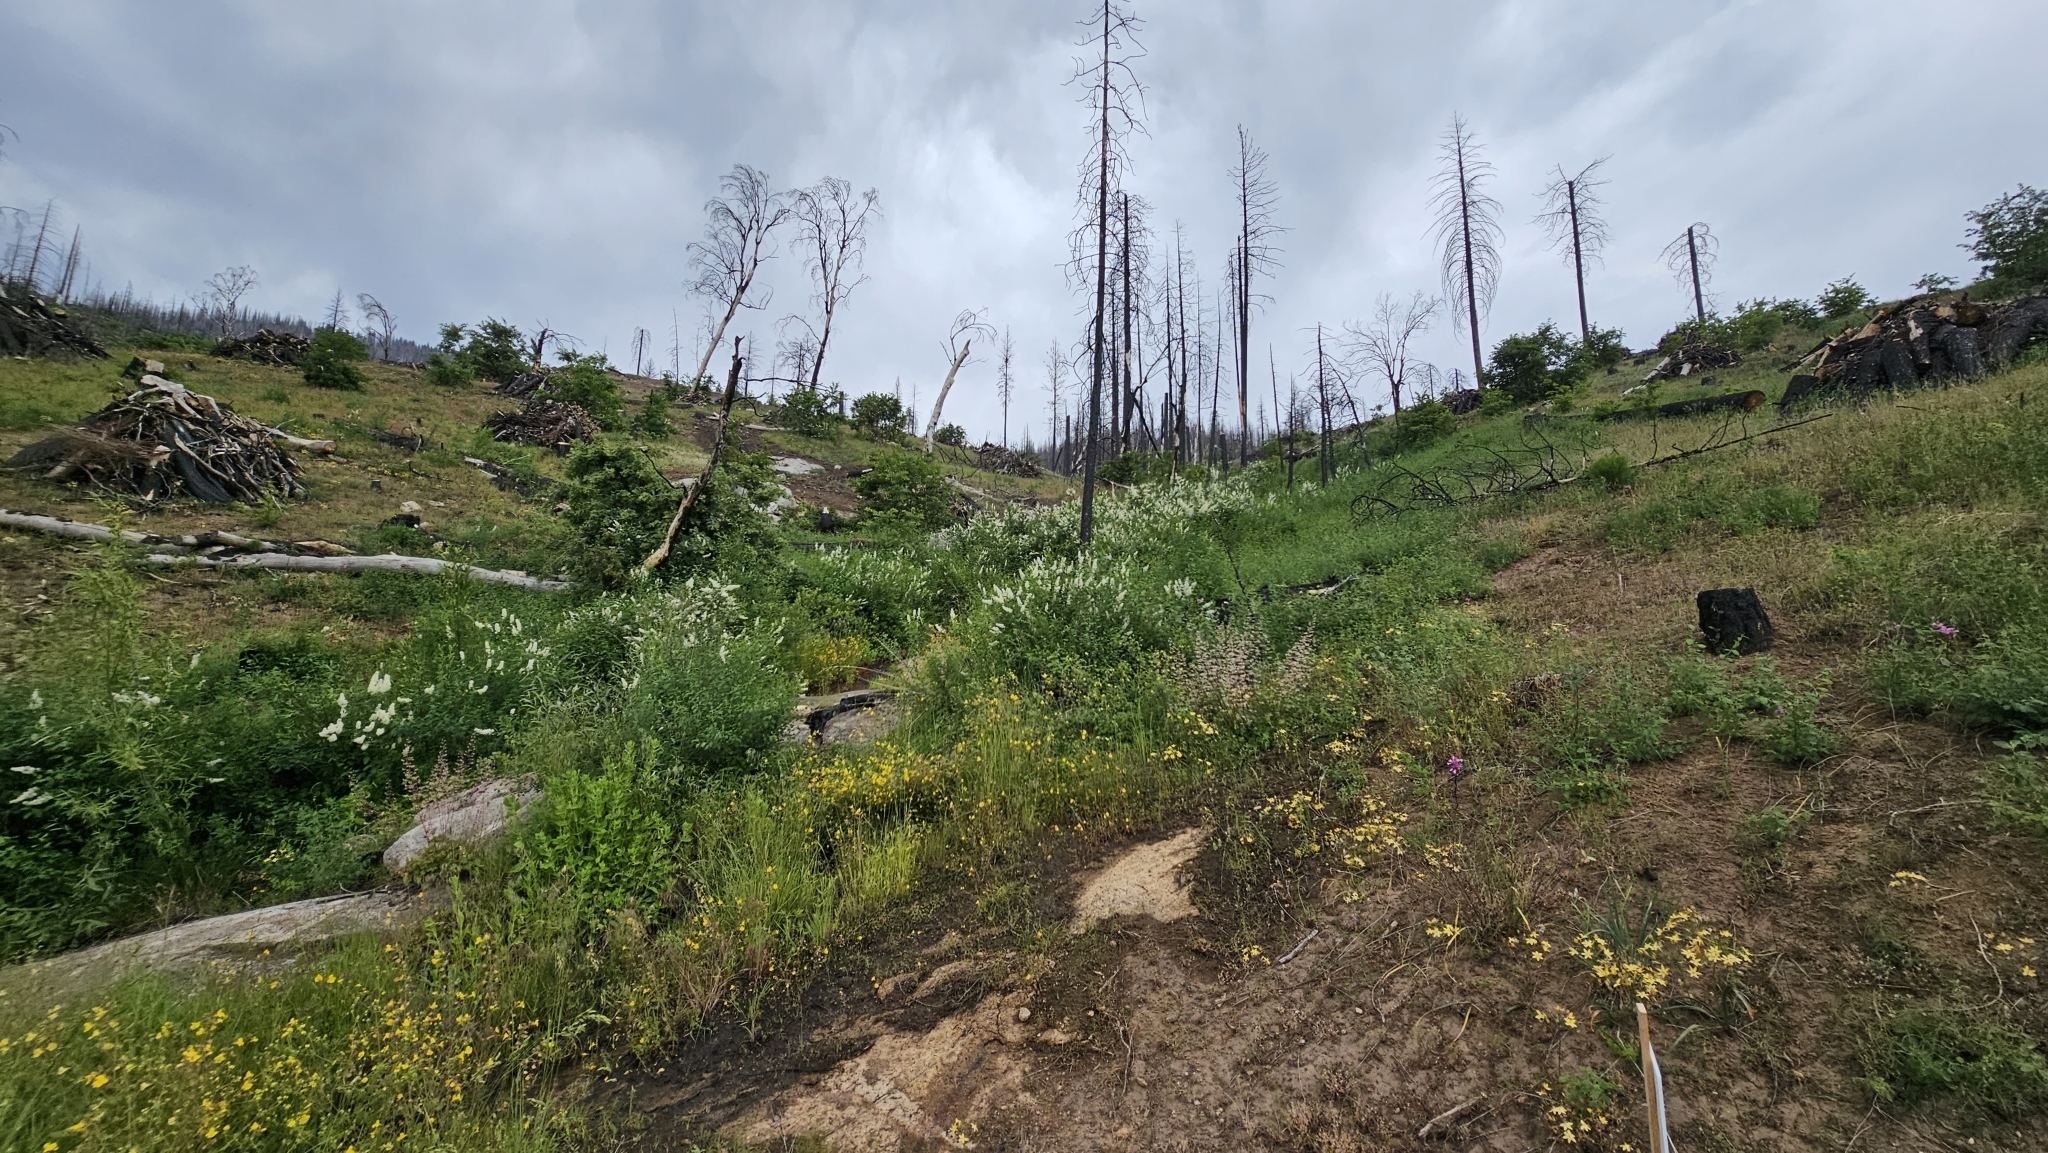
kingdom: Plantae
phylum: Tracheophyta
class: Magnoliopsida
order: Lamiales
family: Phrymaceae
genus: Erythranthe
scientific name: Erythranthe acutidens
